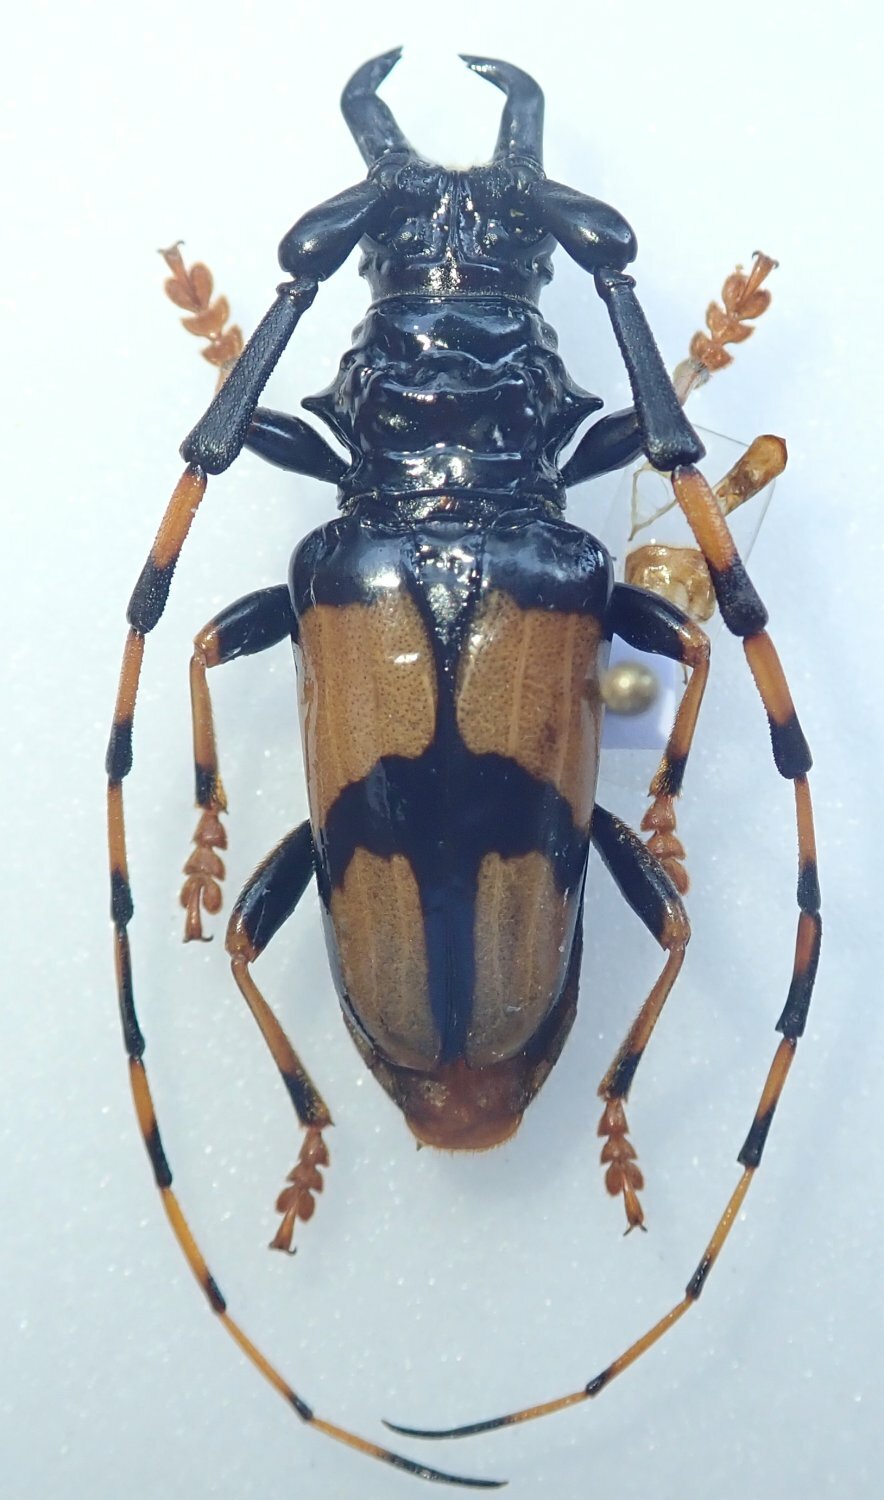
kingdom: Animalia
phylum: Arthropoda
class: Insecta
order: Coleoptera
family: Cerambycidae
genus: Trachyderes
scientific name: Trachyderes mandibularis
